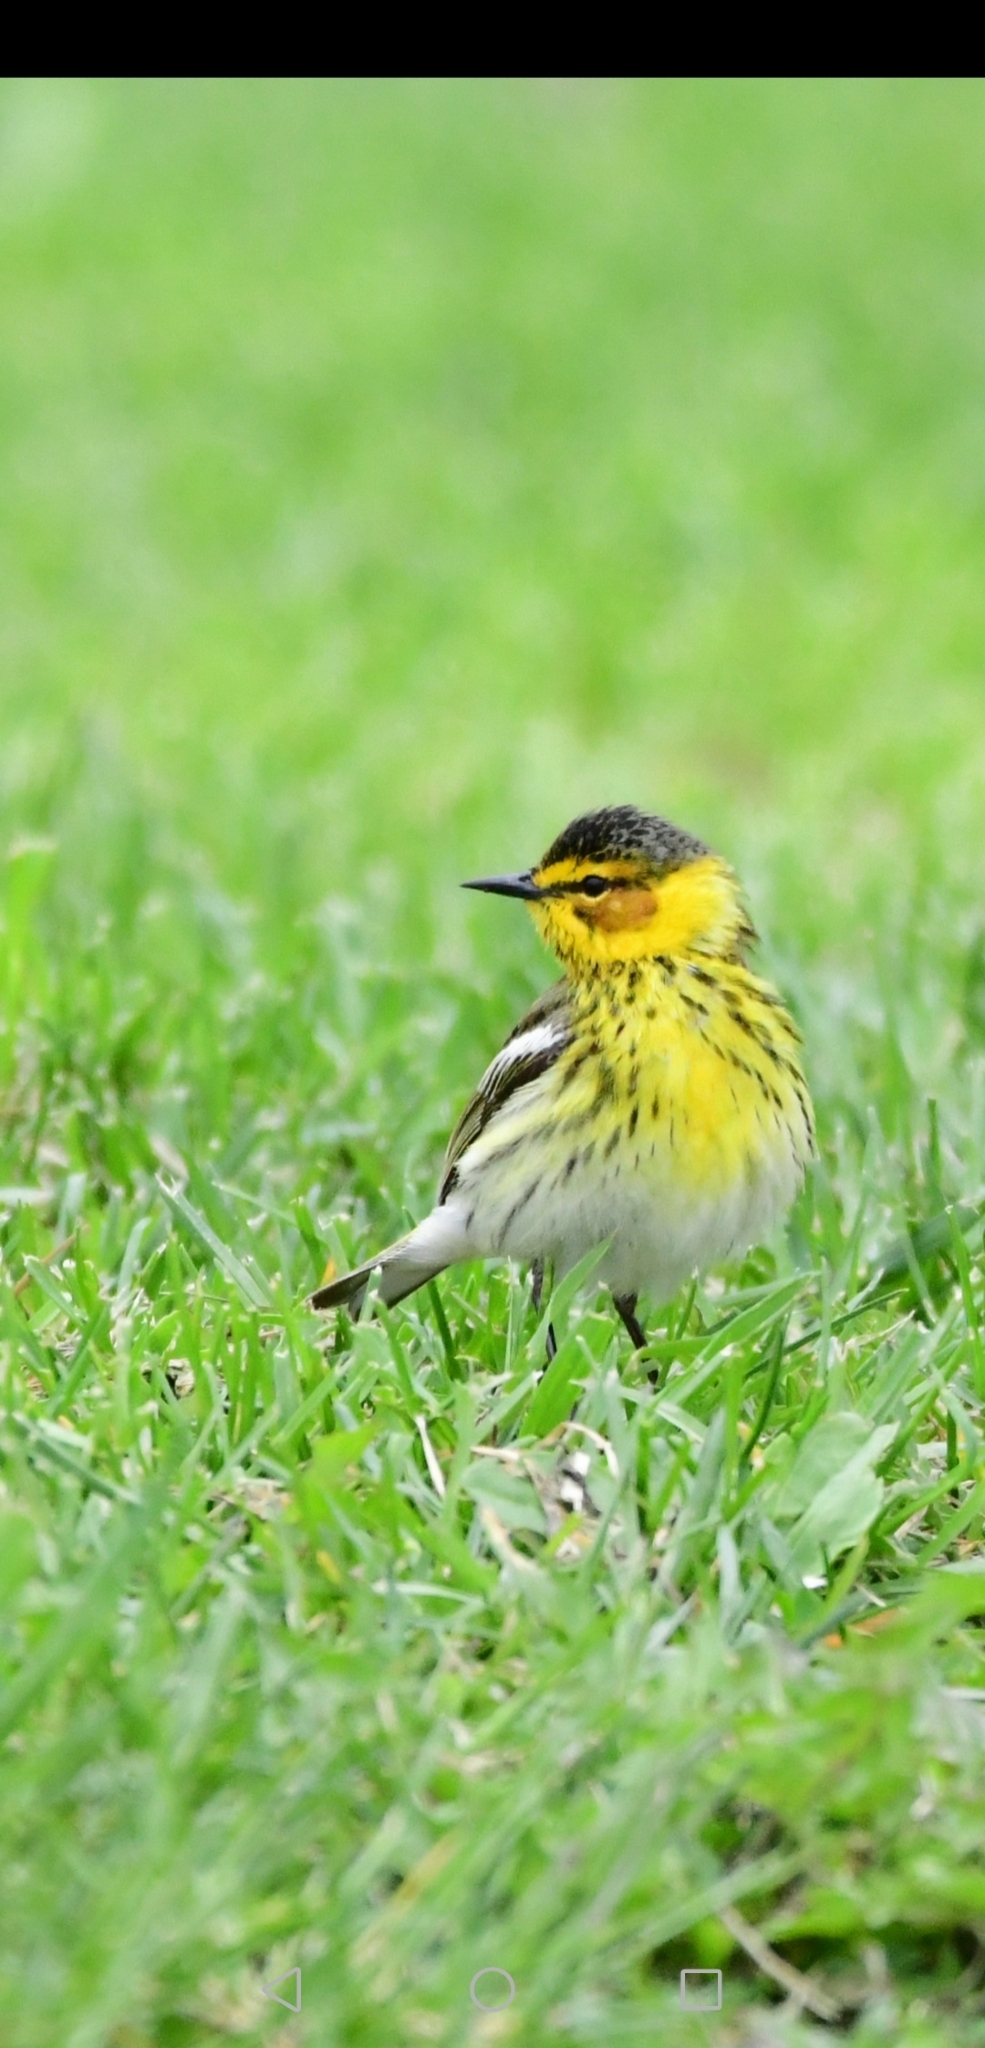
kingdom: Animalia
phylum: Chordata
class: Aves
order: Passeriformes
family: Parulidae
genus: Setophaga
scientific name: Setophaga tigrina
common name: Cape may warbler
